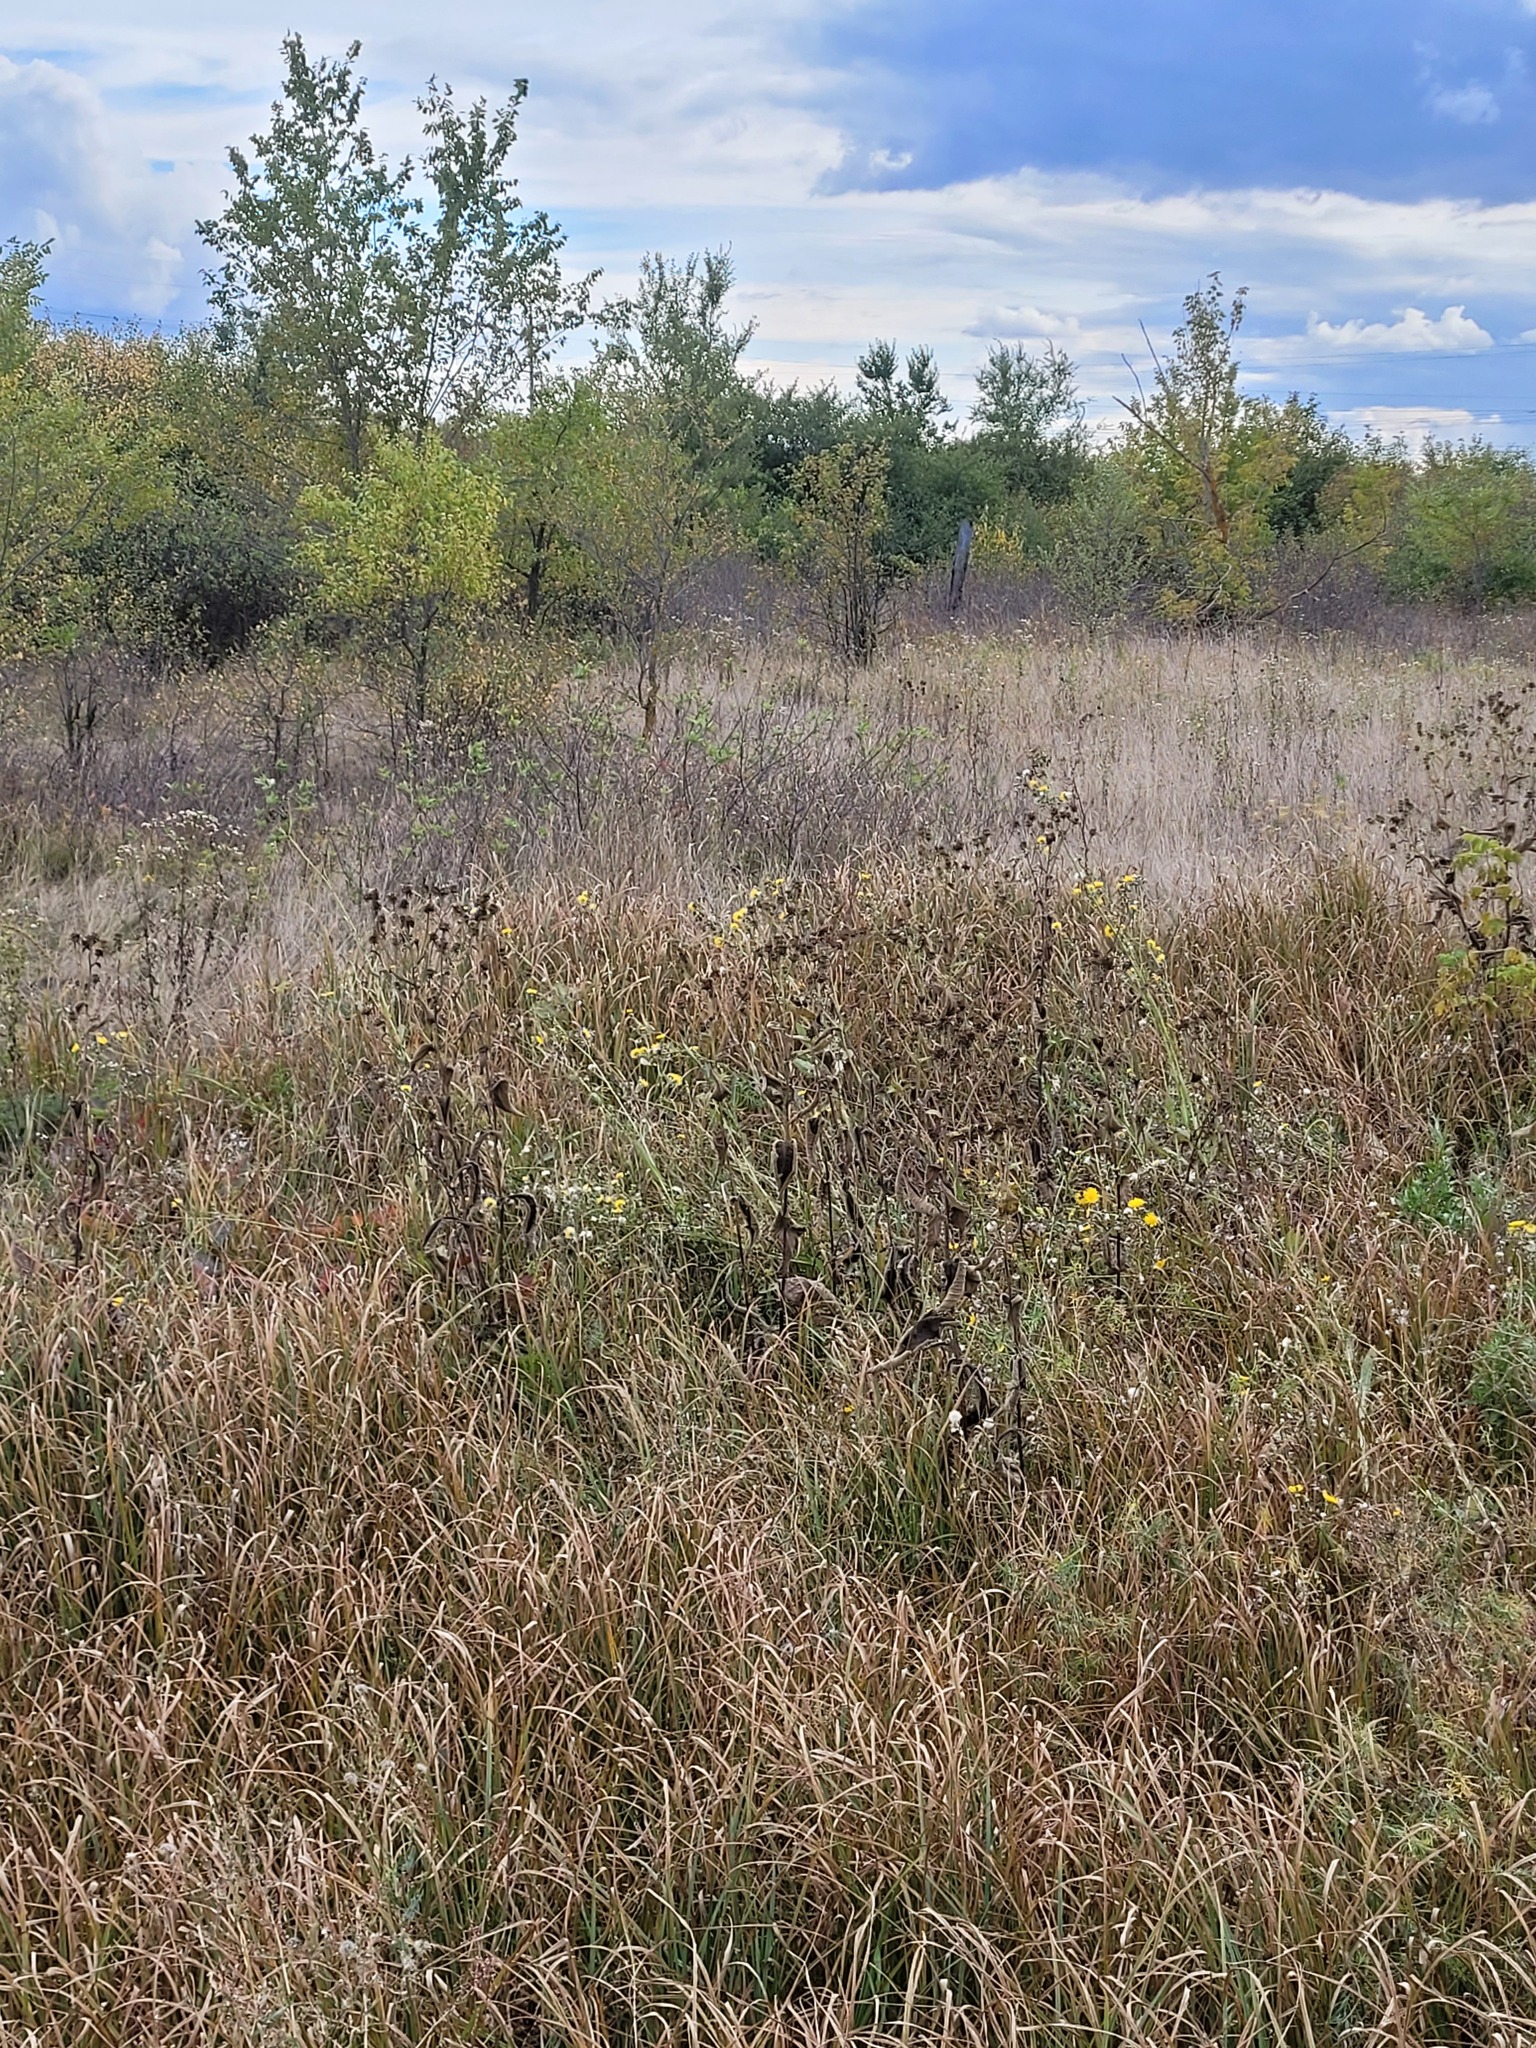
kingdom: Plantae
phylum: Tracheophyta
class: Magnoliopsida
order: Asterales
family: Asteraceae
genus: Inula
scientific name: Inula helenium
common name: Elecampane
